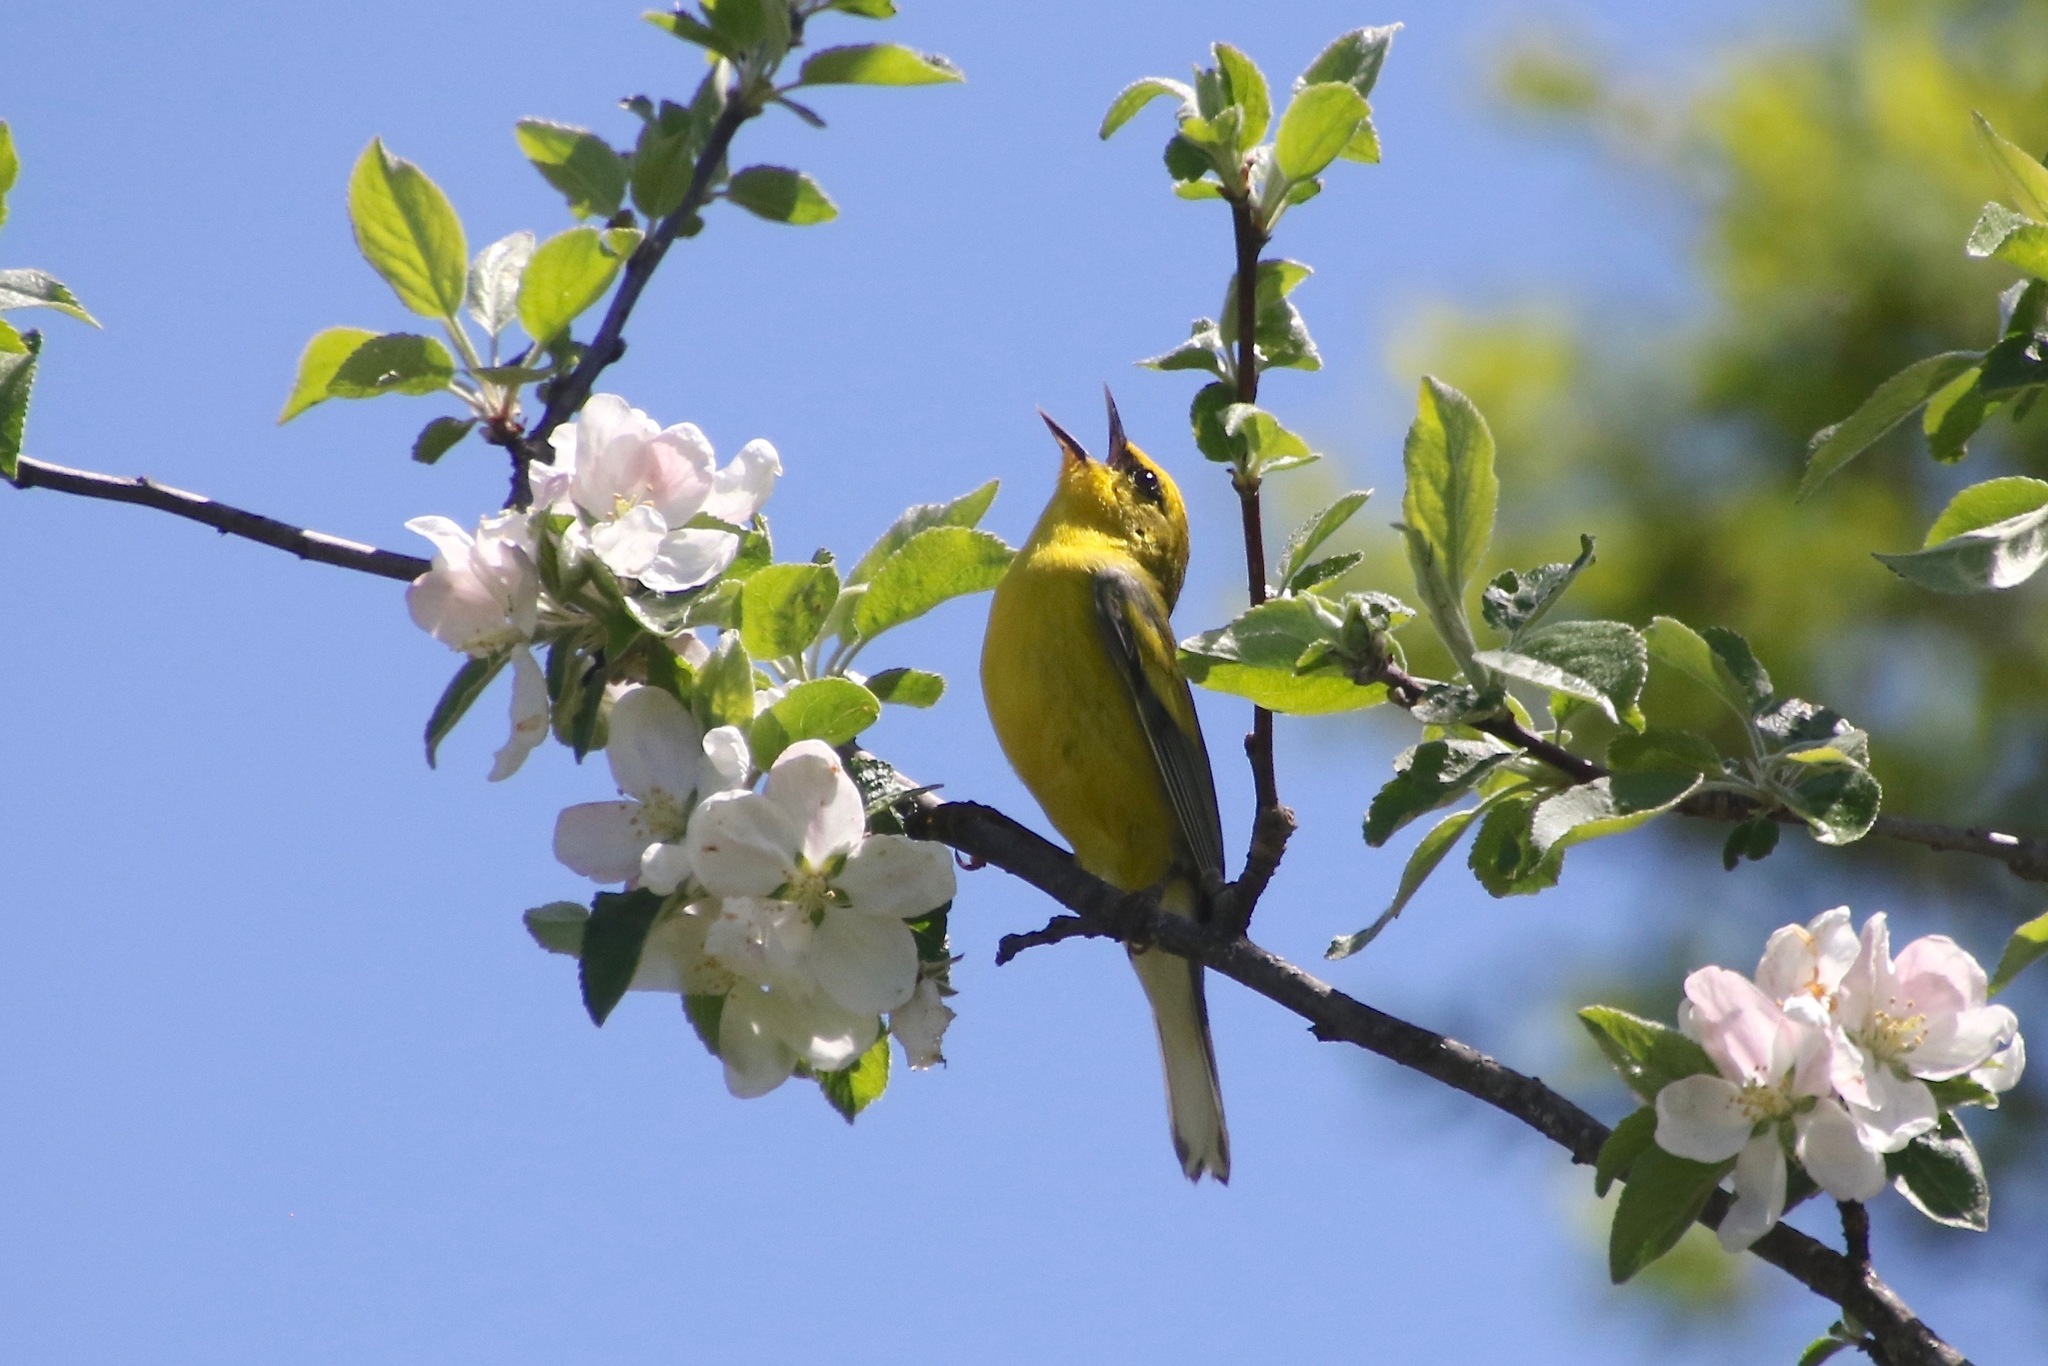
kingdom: Animalia
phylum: Chordata
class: Aves
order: Passeriformes
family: Parulidae
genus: Vermivora
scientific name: Vermivora
